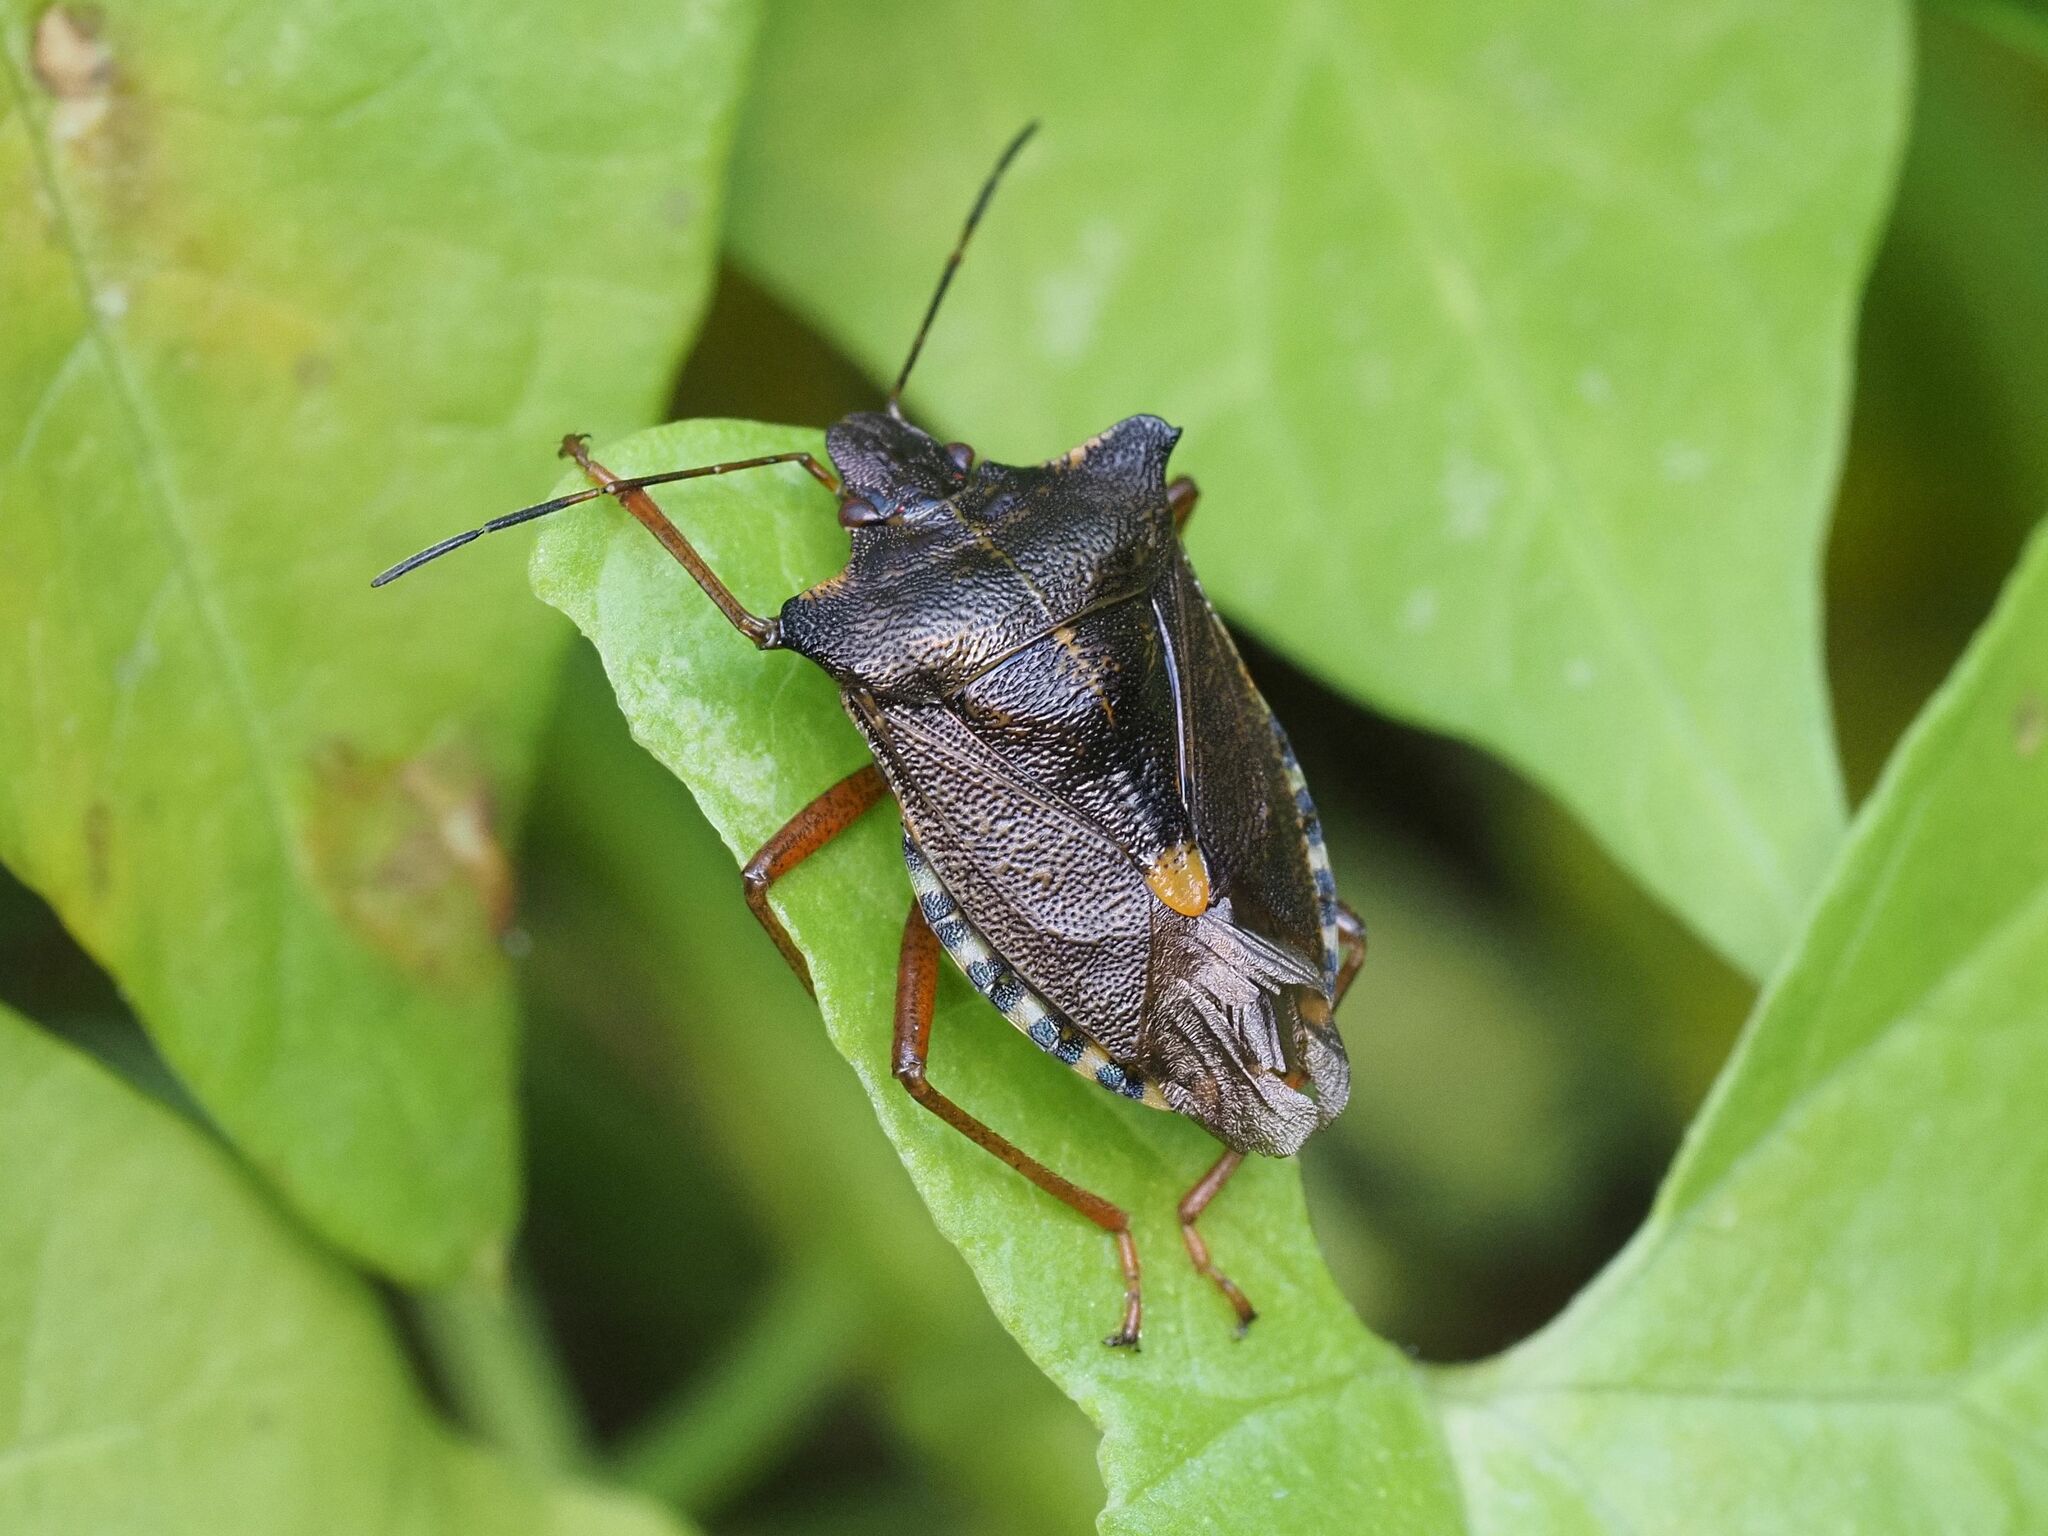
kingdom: Animalia
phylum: Arthropoda
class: Insecta
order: Hemiptera
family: Pentatomidae
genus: Pentatoma
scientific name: Pentatoma rufipes
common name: Forest bug
